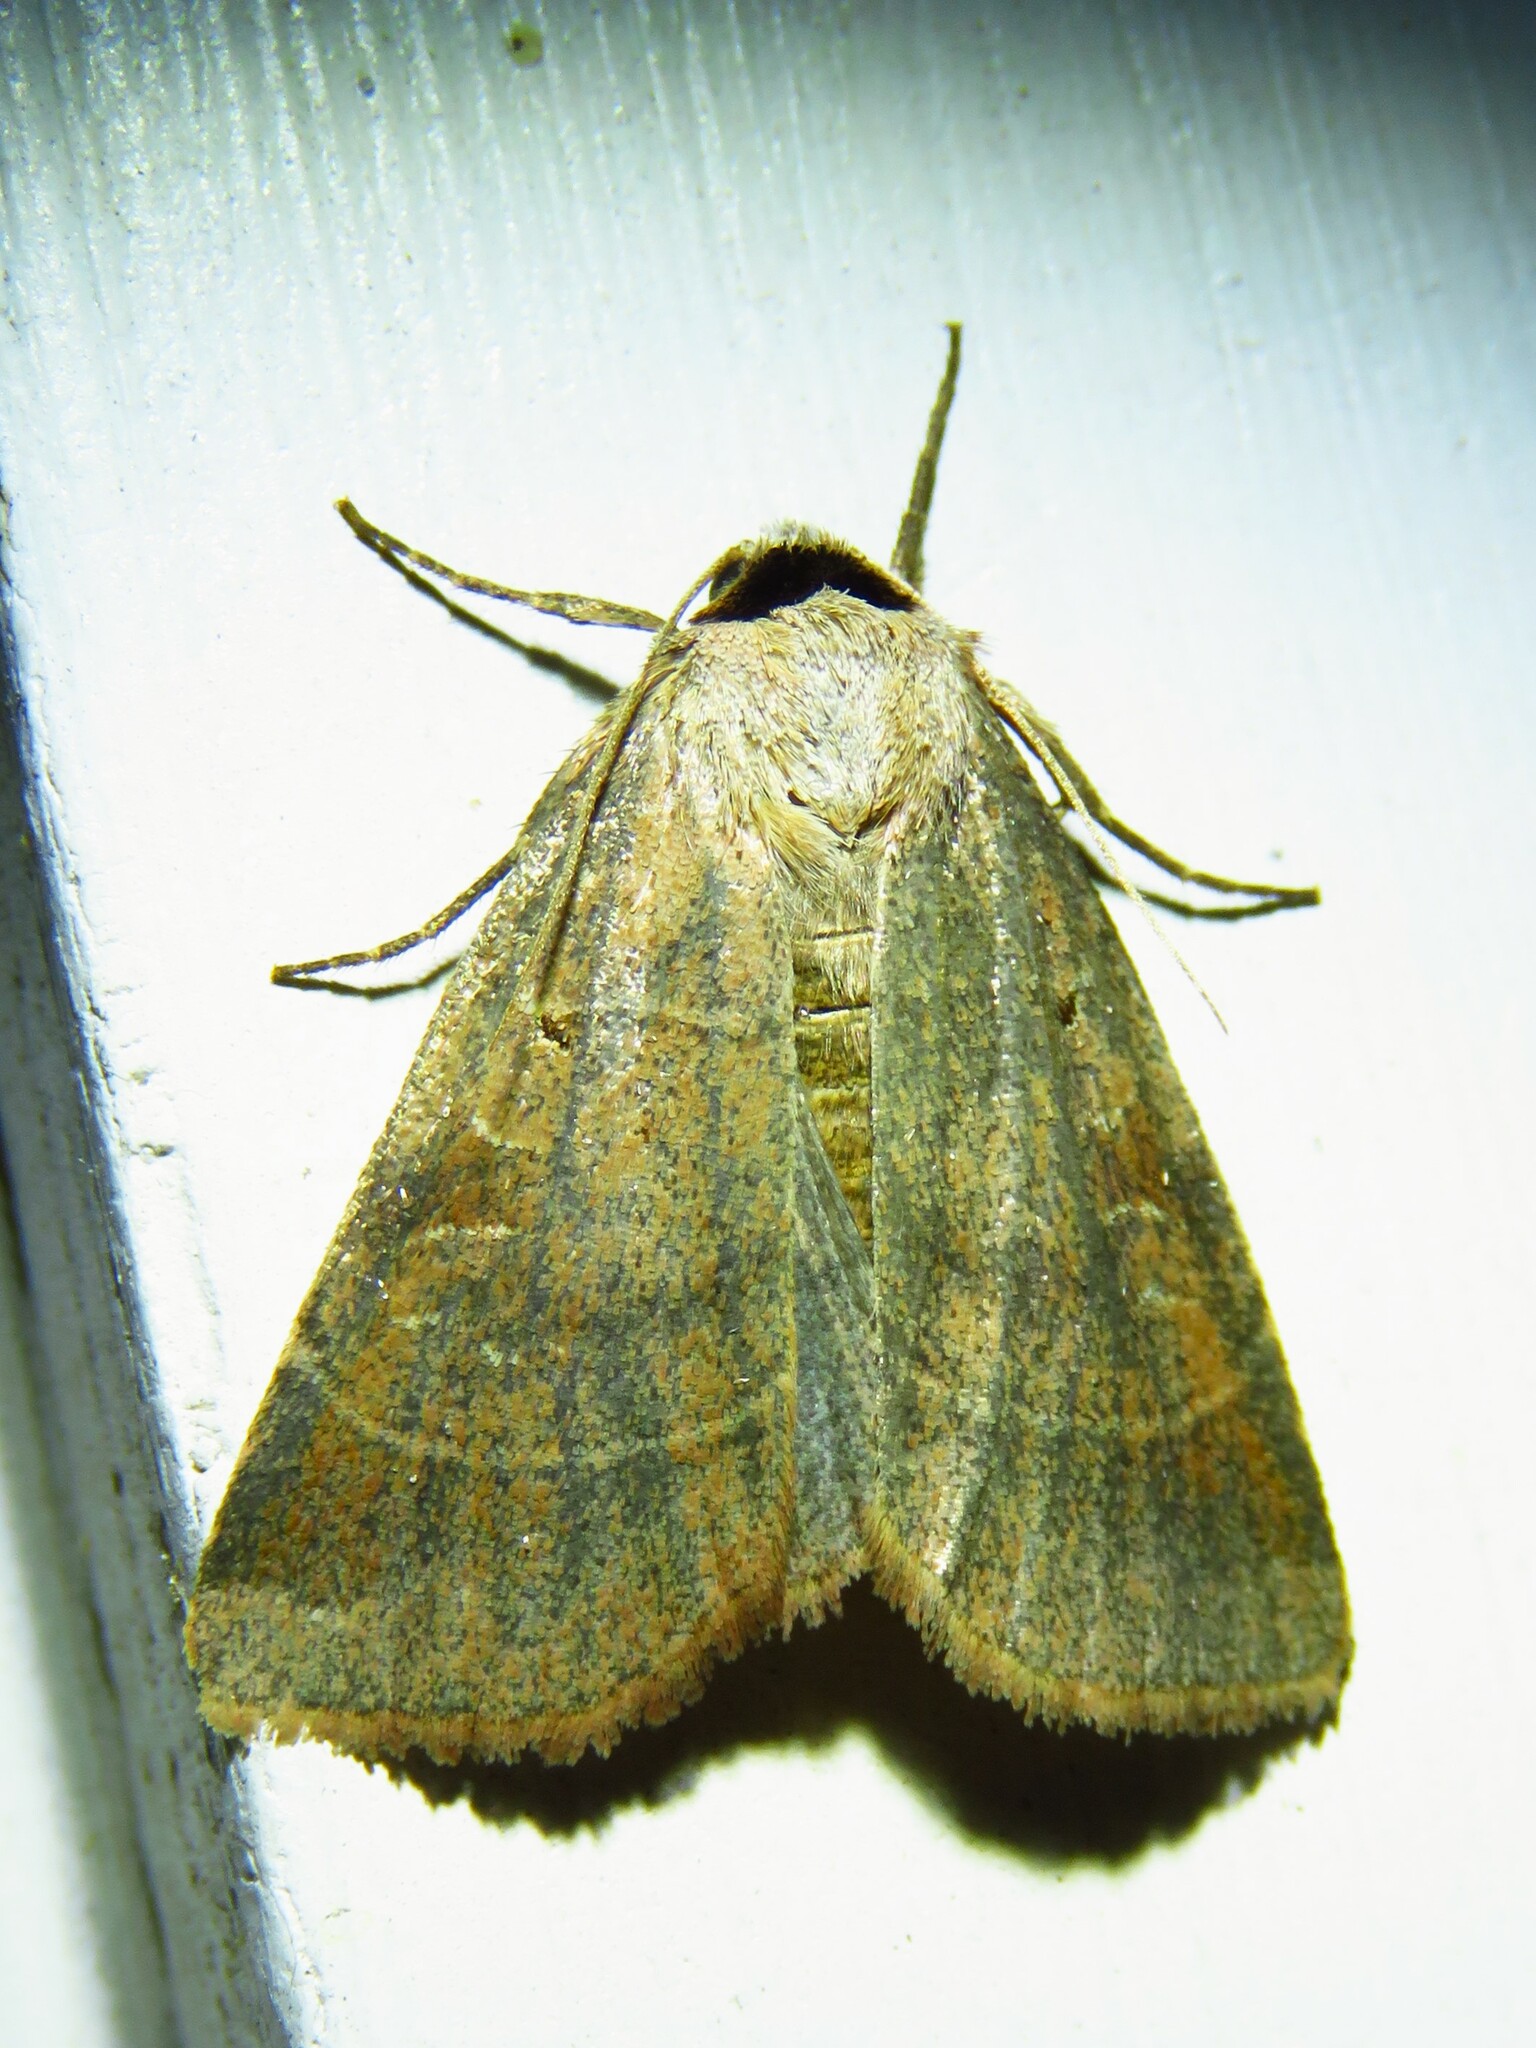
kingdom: Animalia
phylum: Arthropoda
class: Insecta
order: Lepidoptera
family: Noctuidae
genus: Agnorisma
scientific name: Agnorisma badinodis
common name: Pale-banded dart
